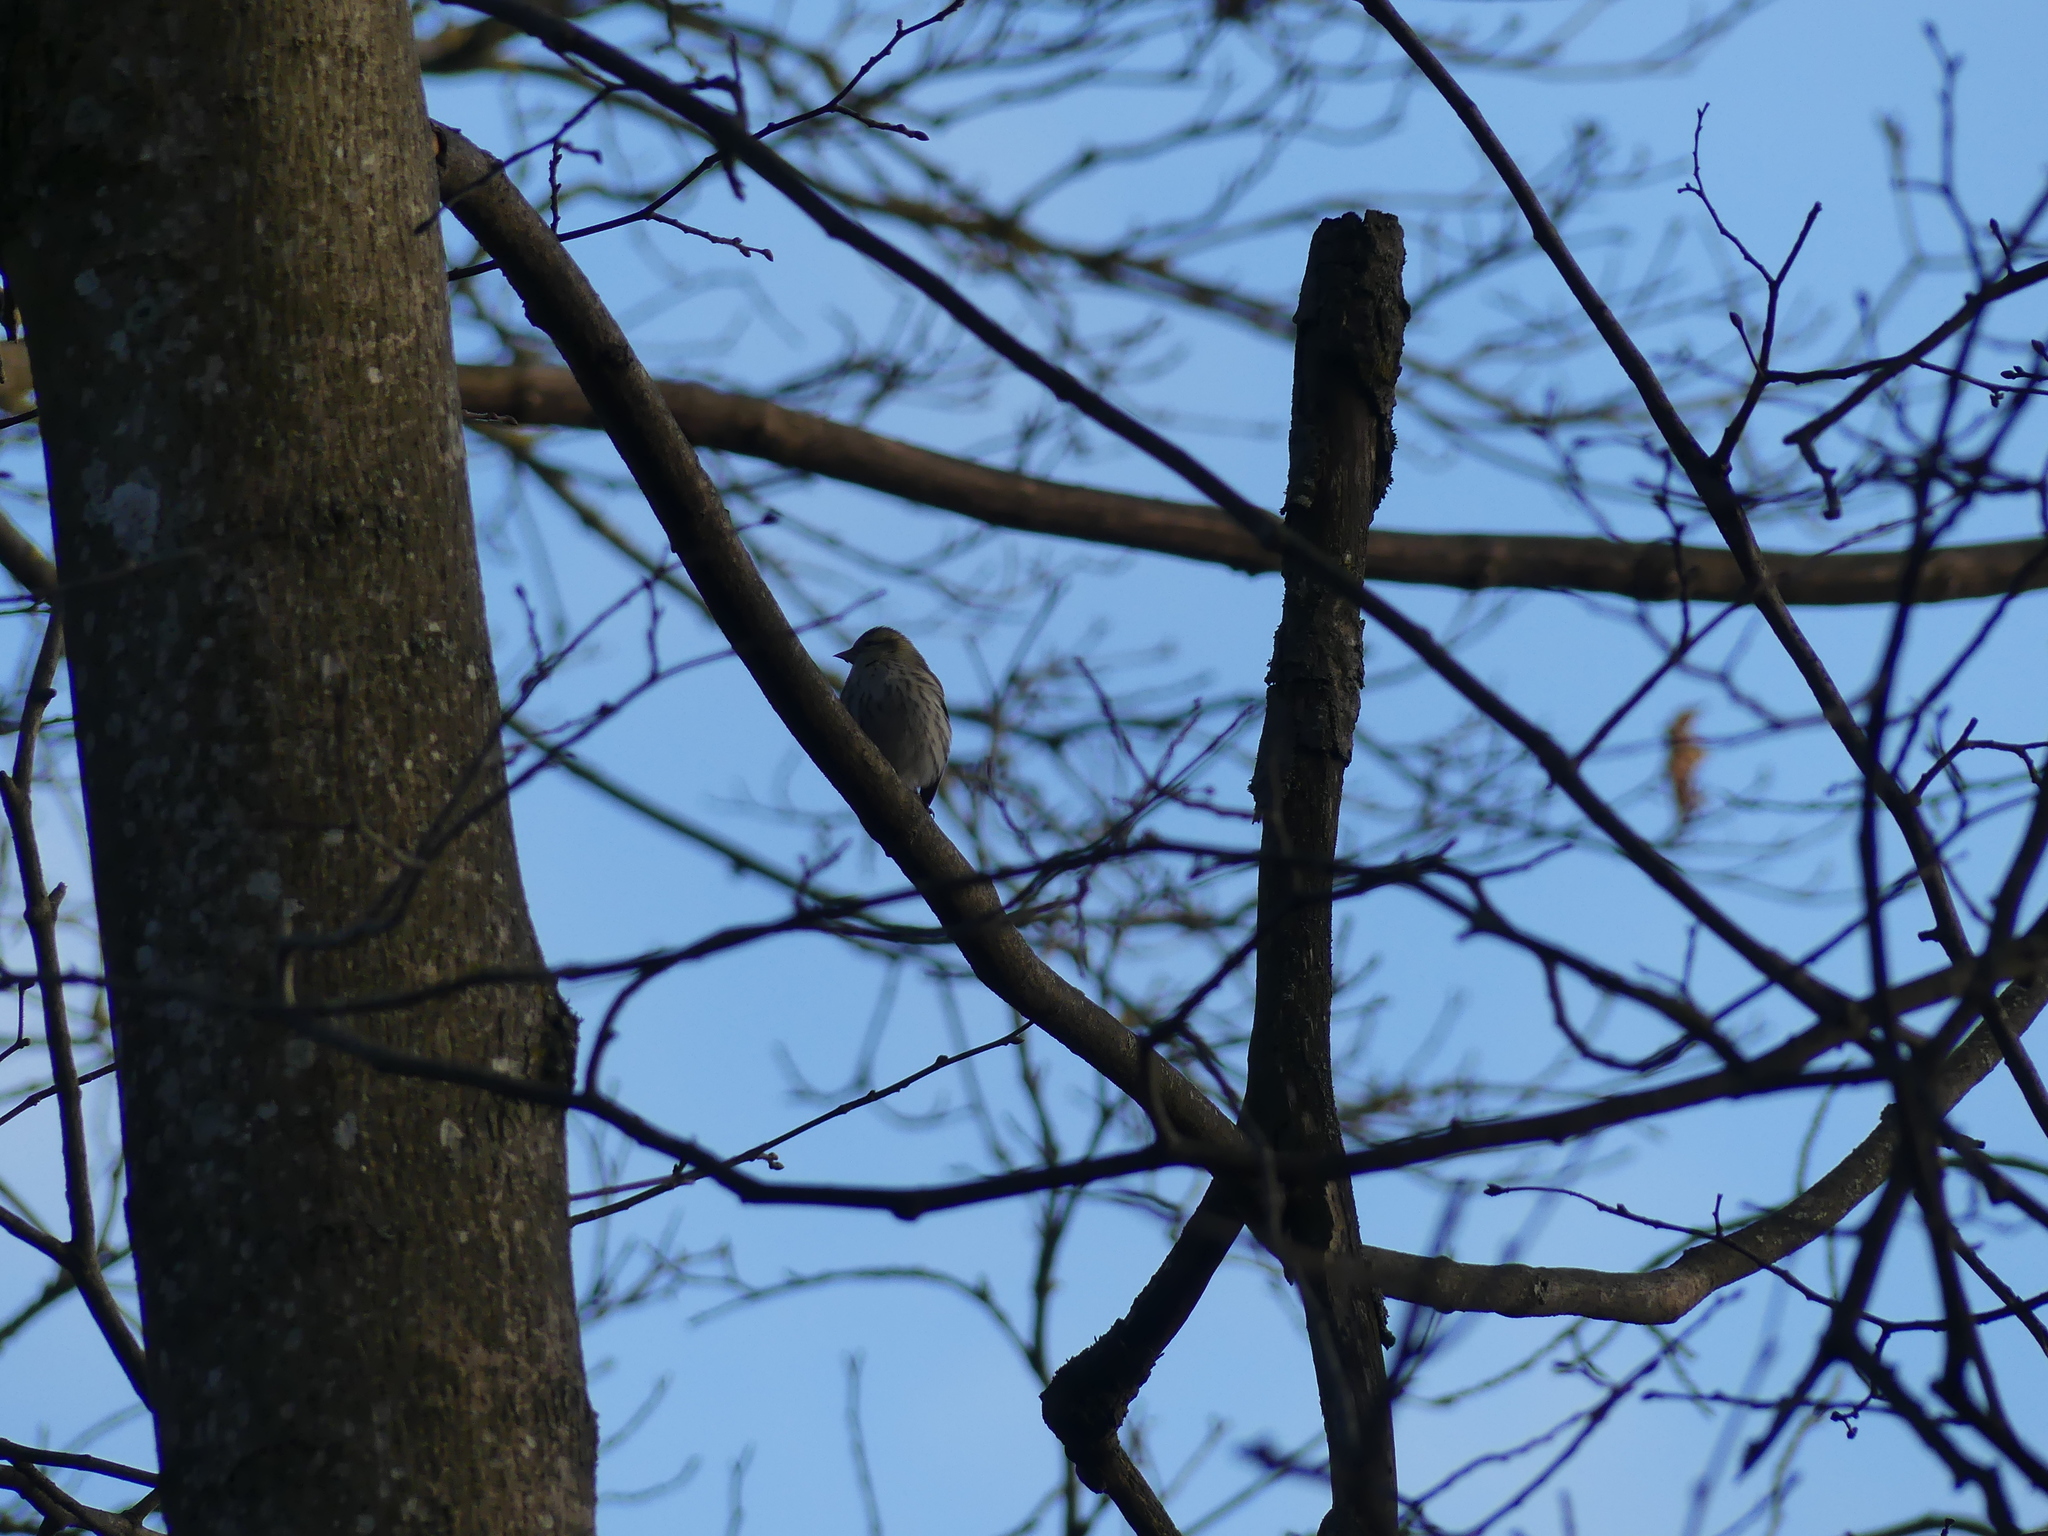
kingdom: Animalia
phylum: Chordata
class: Aves
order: Passeriformes
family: Fringillidae
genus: Spinus
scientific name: Spinus spinus
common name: Eurasian siskin
